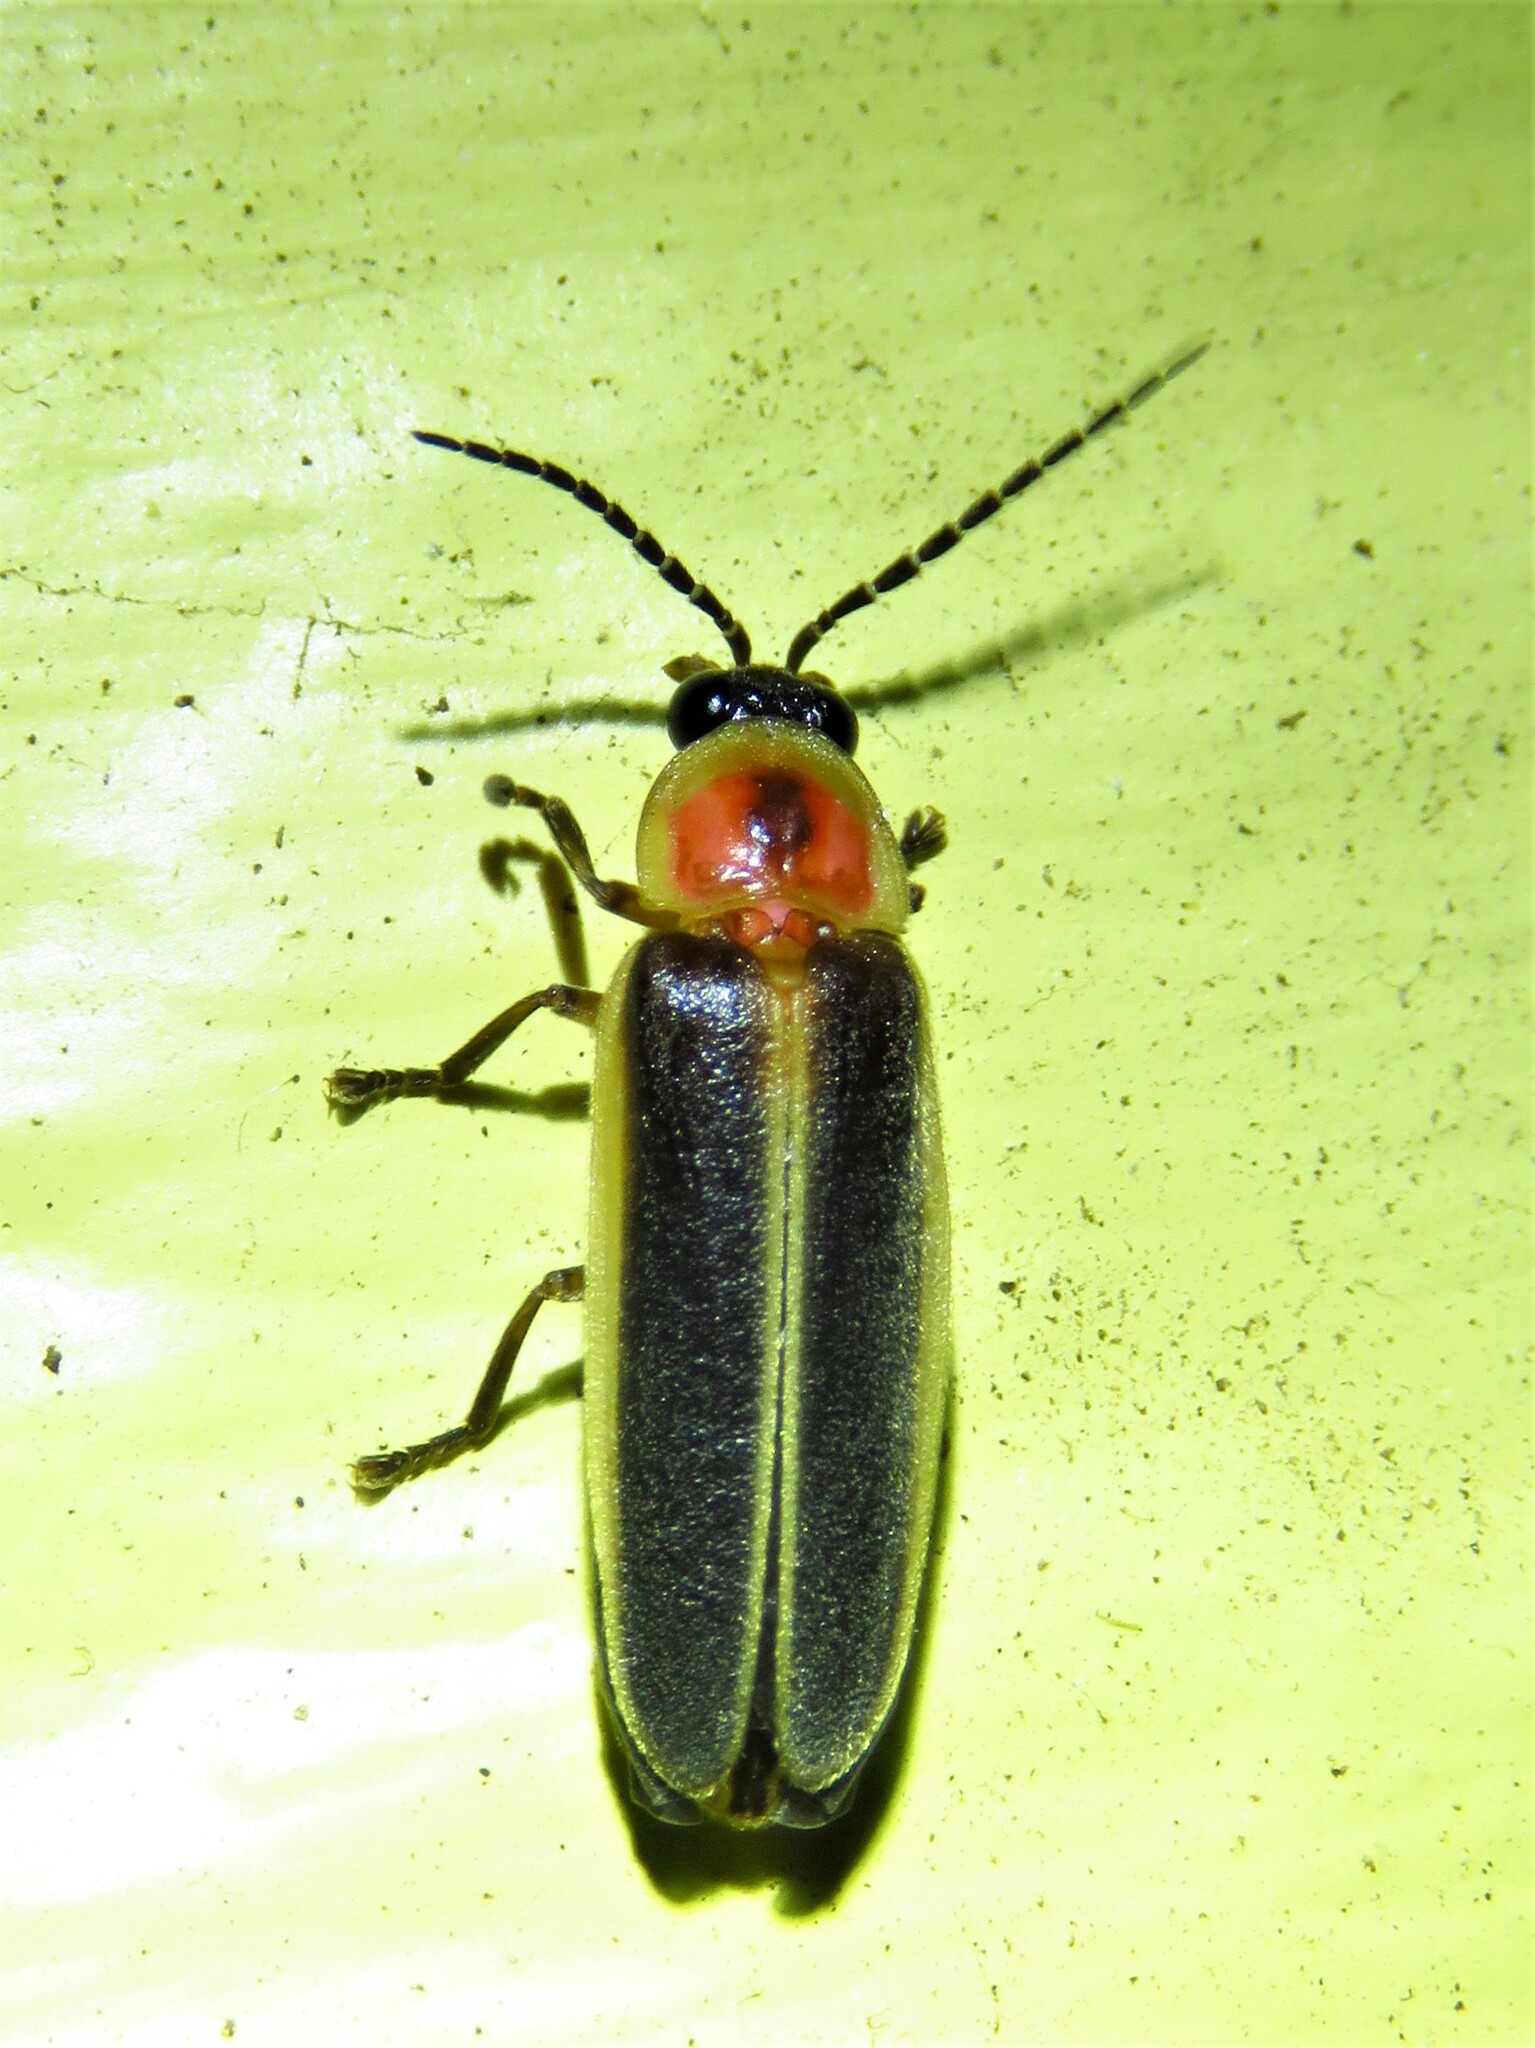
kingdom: Animalia
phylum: Arthropoda
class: Insecta
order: Coleoptera
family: Lampyridae
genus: Photinus
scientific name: Photinus pyralis
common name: Big dipper firefly
